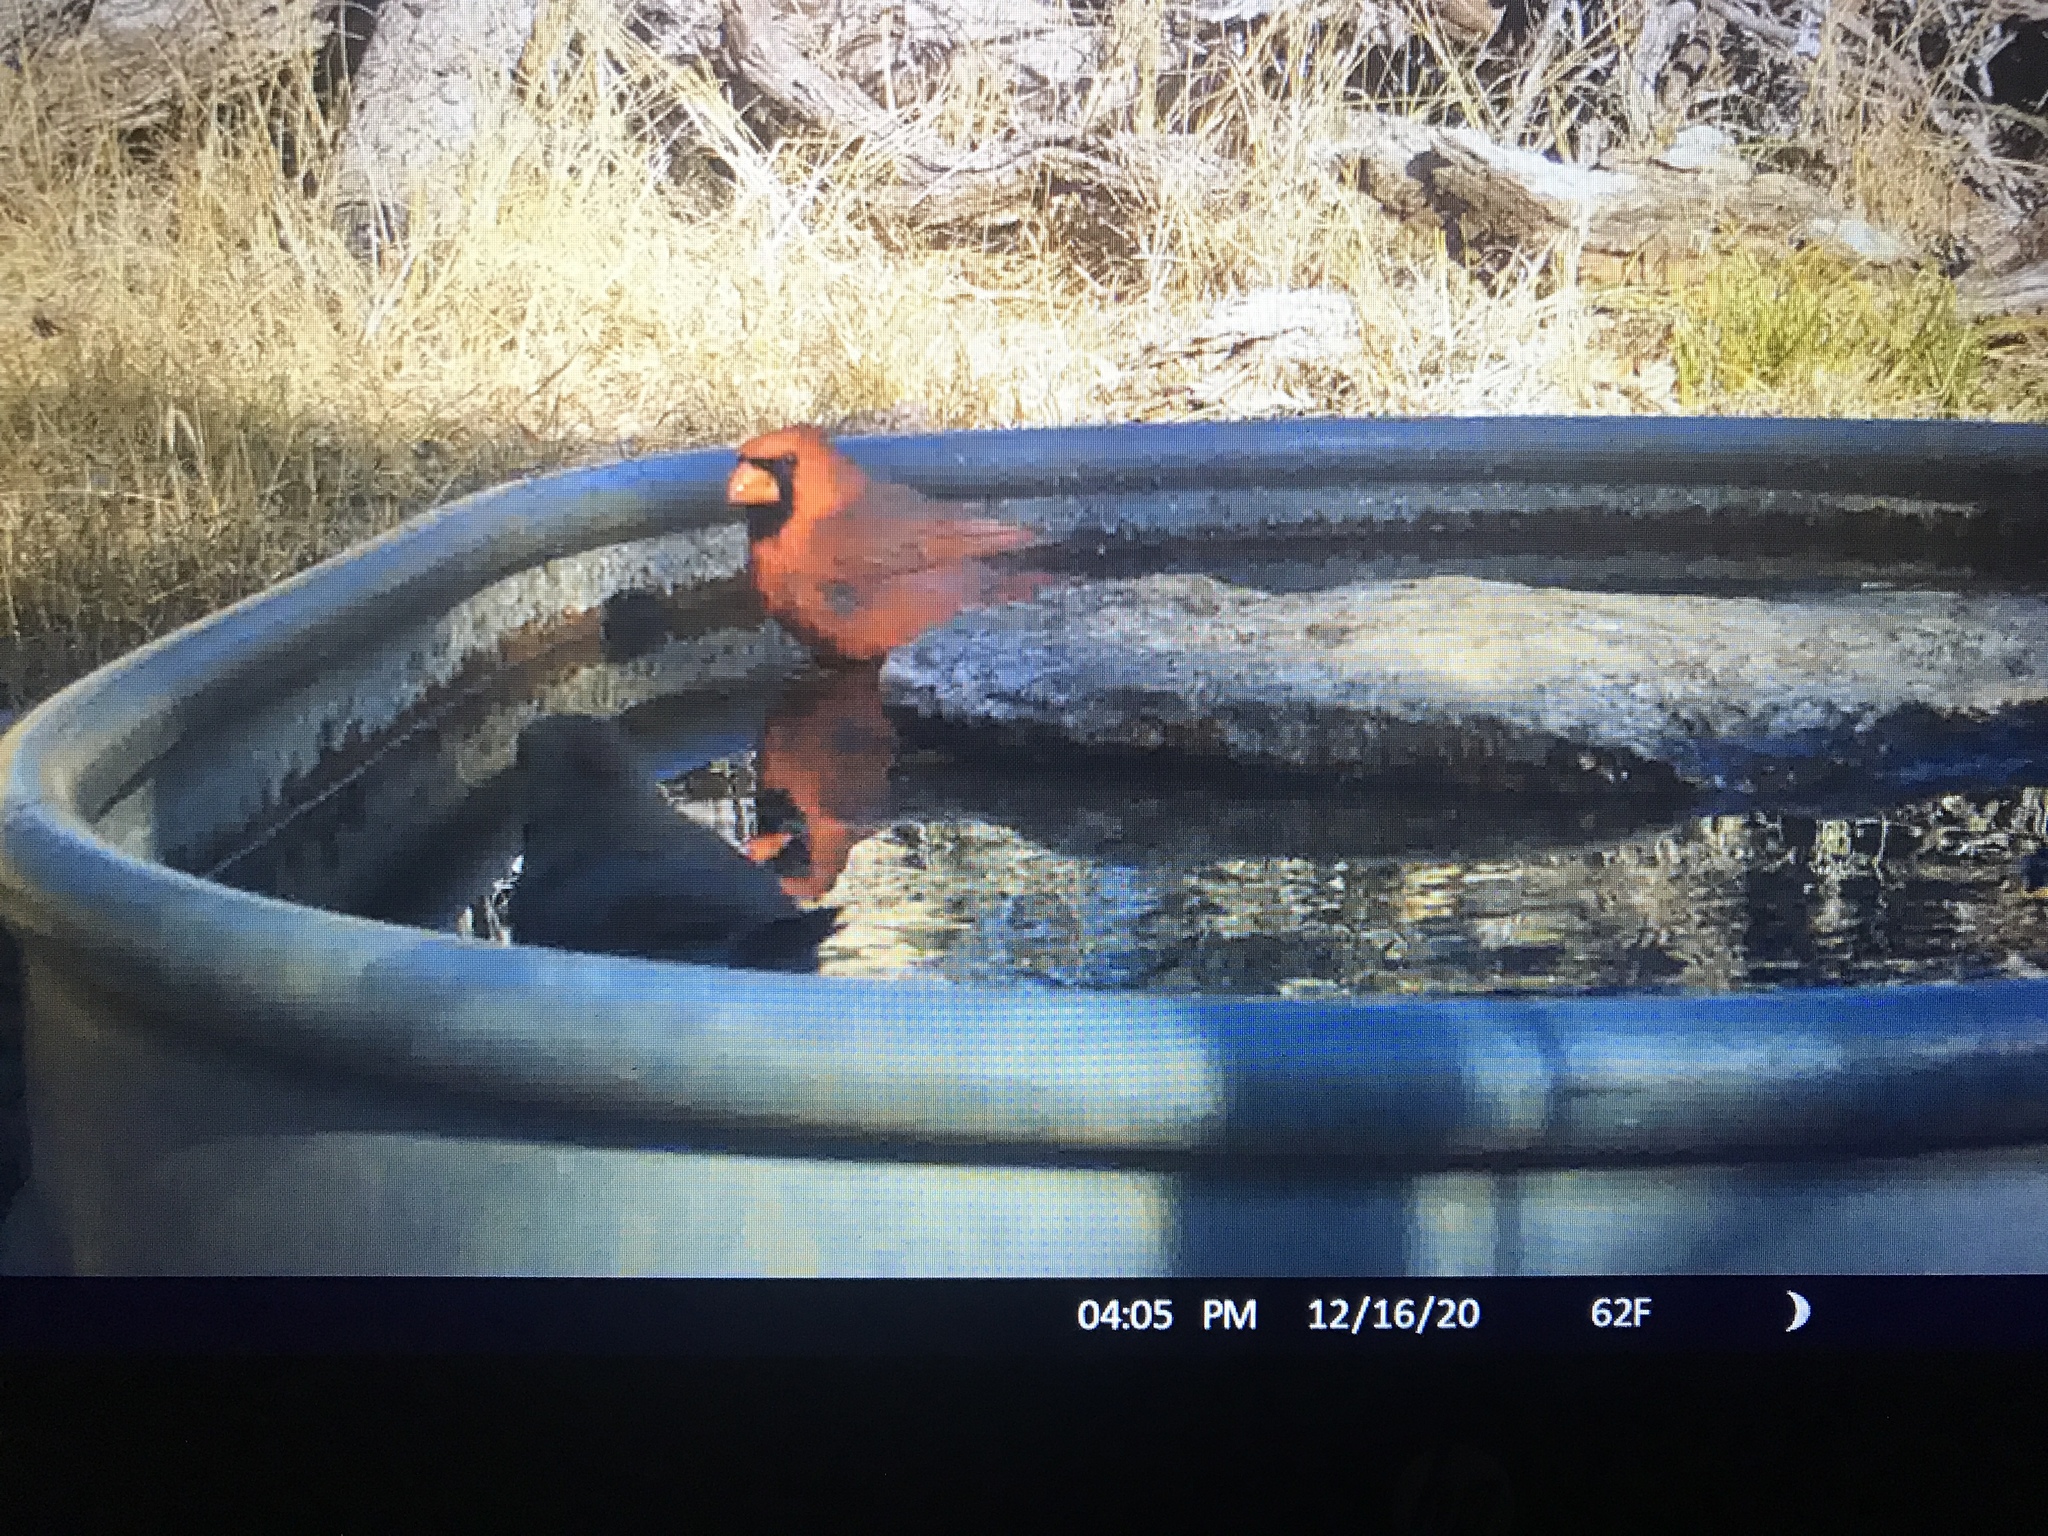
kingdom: Animalia
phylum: Chordata
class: Aves
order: Passeriformes
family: Cardinalidae
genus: Cardinalis
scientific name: Cardinalis cardinalis
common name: Northern cardinal
